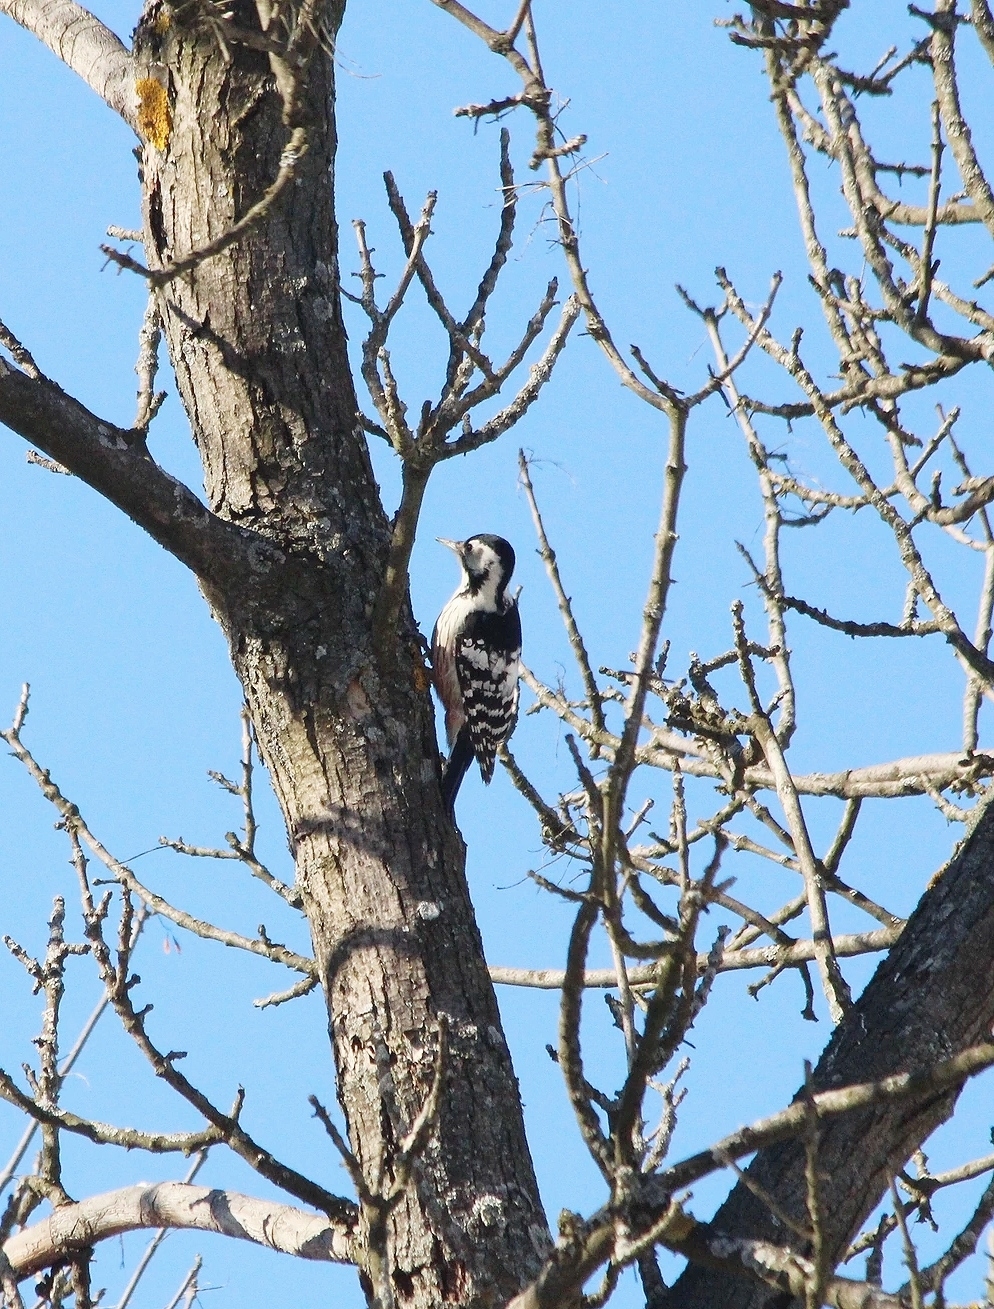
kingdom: Animalia
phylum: Chordata
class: Aves
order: Piciformes
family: Picidae
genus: Dendrocopos
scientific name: Dendrocopos leucotos
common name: White-backed woodpecker
